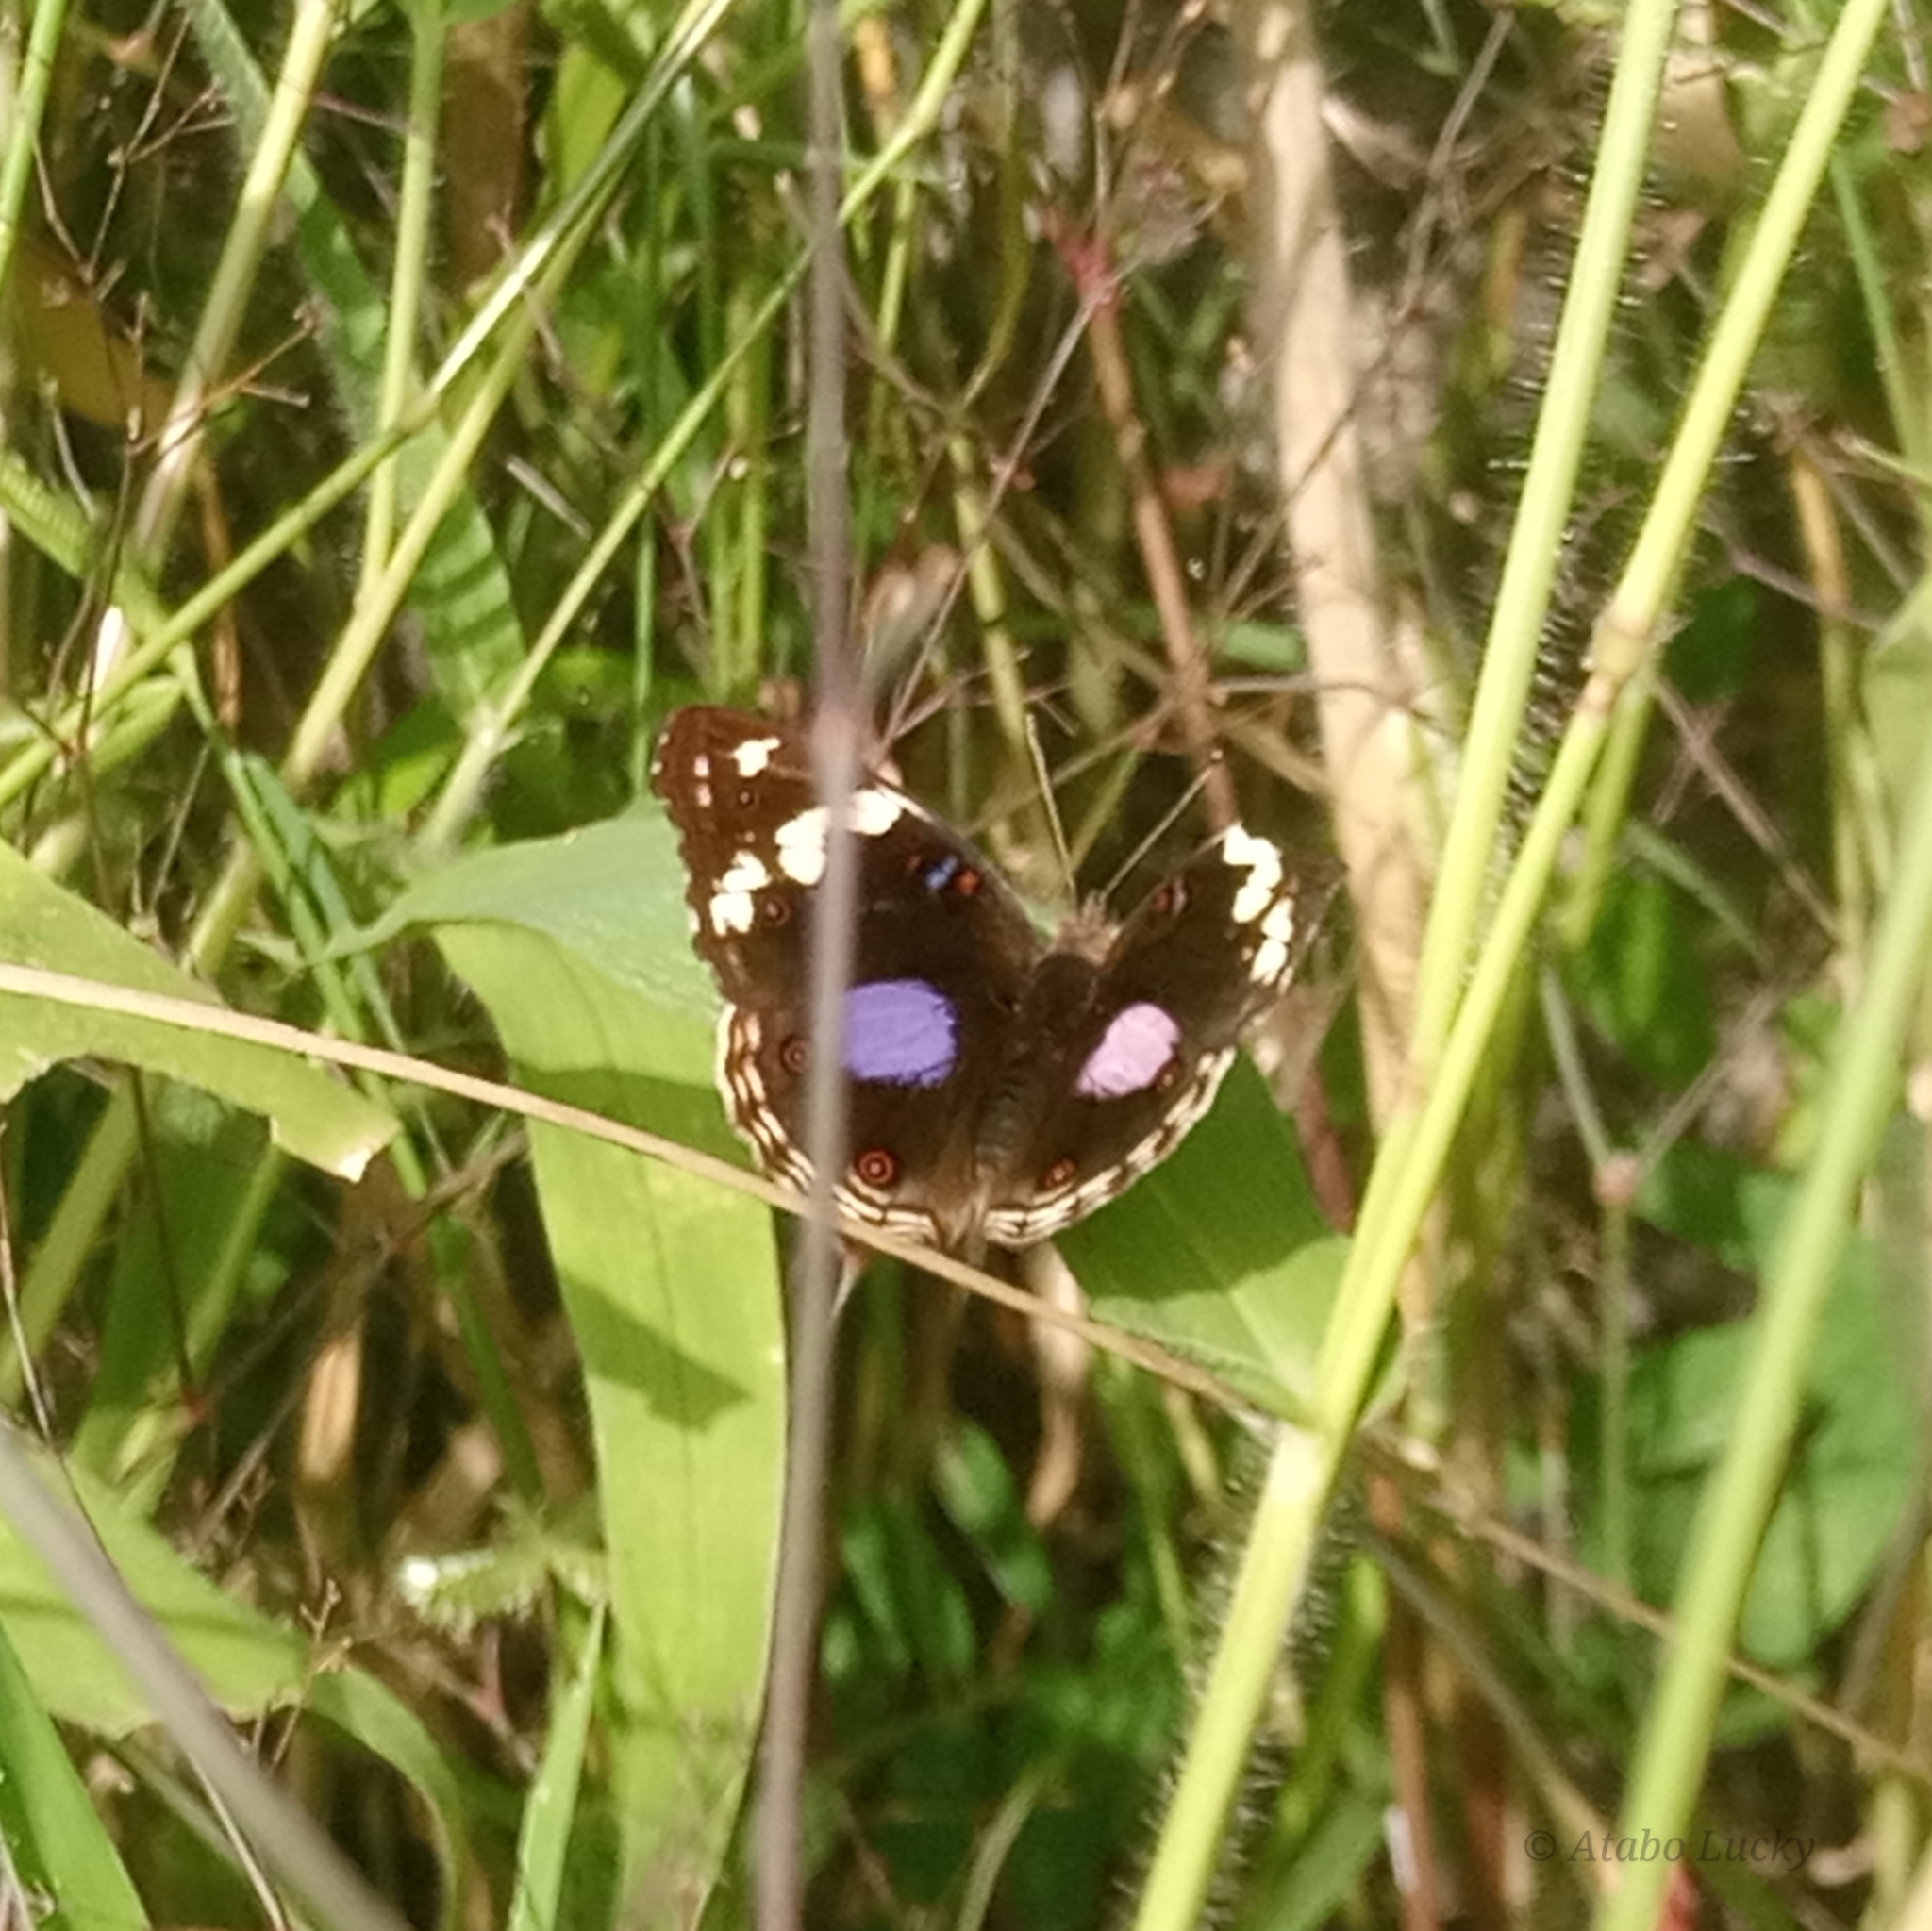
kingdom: Animalia
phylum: Arthropoda
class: Insecta
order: Lepidoptera
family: Nymphalidae
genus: Junonia
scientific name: Junonia oenone
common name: Dark blue pansy
